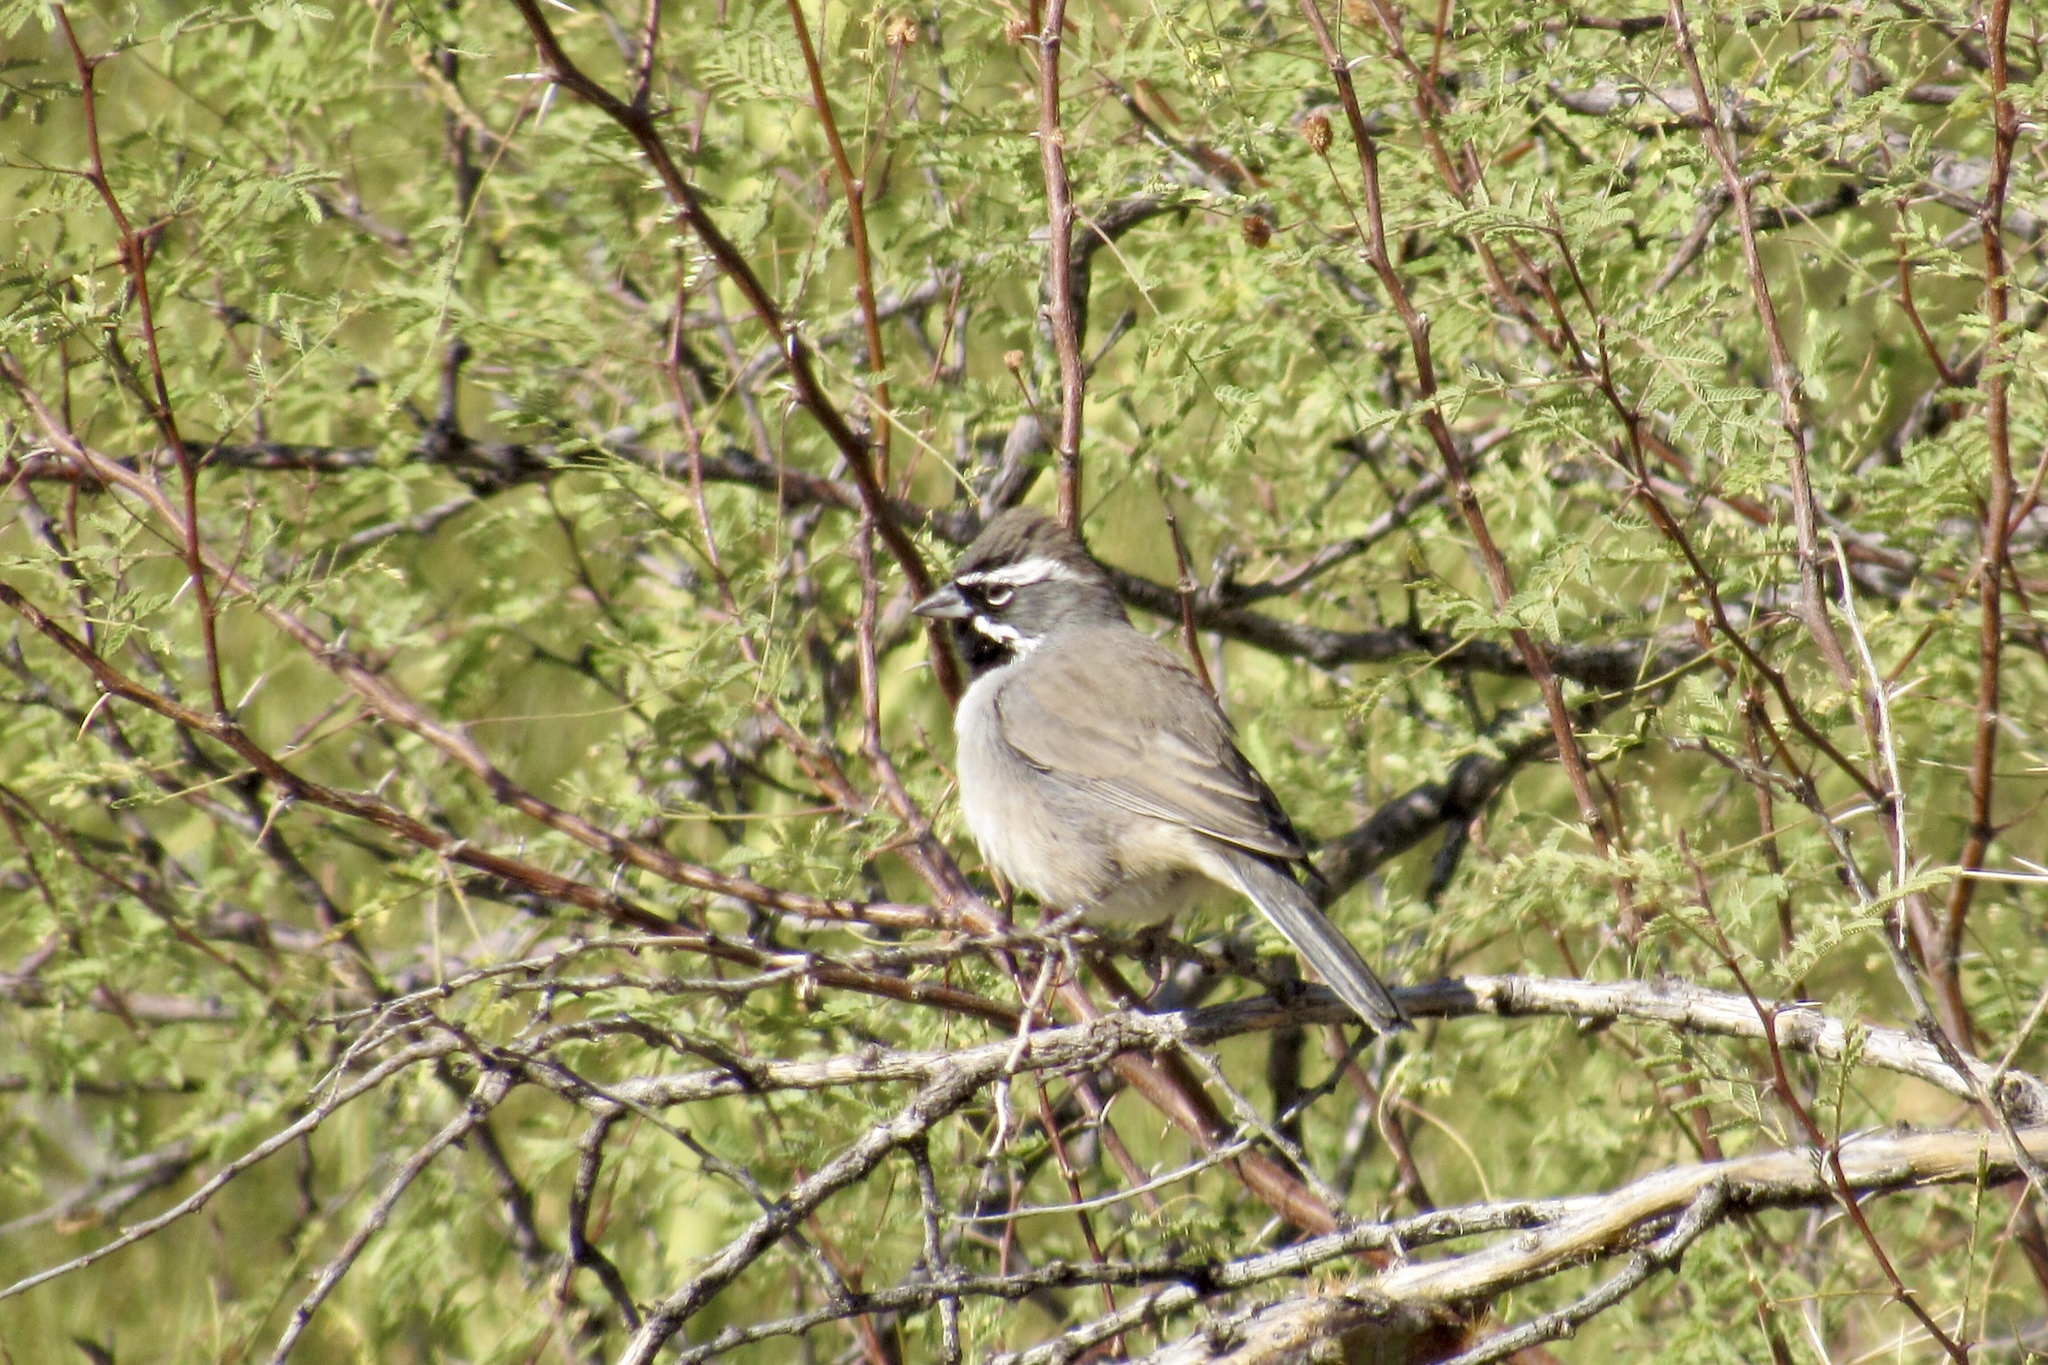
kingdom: Animalia
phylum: Chordata
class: Aves
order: Passeriformes
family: Passerellidae
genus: Amphispiza
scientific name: Amphispiza bilineata
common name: Black-throated sparrow
